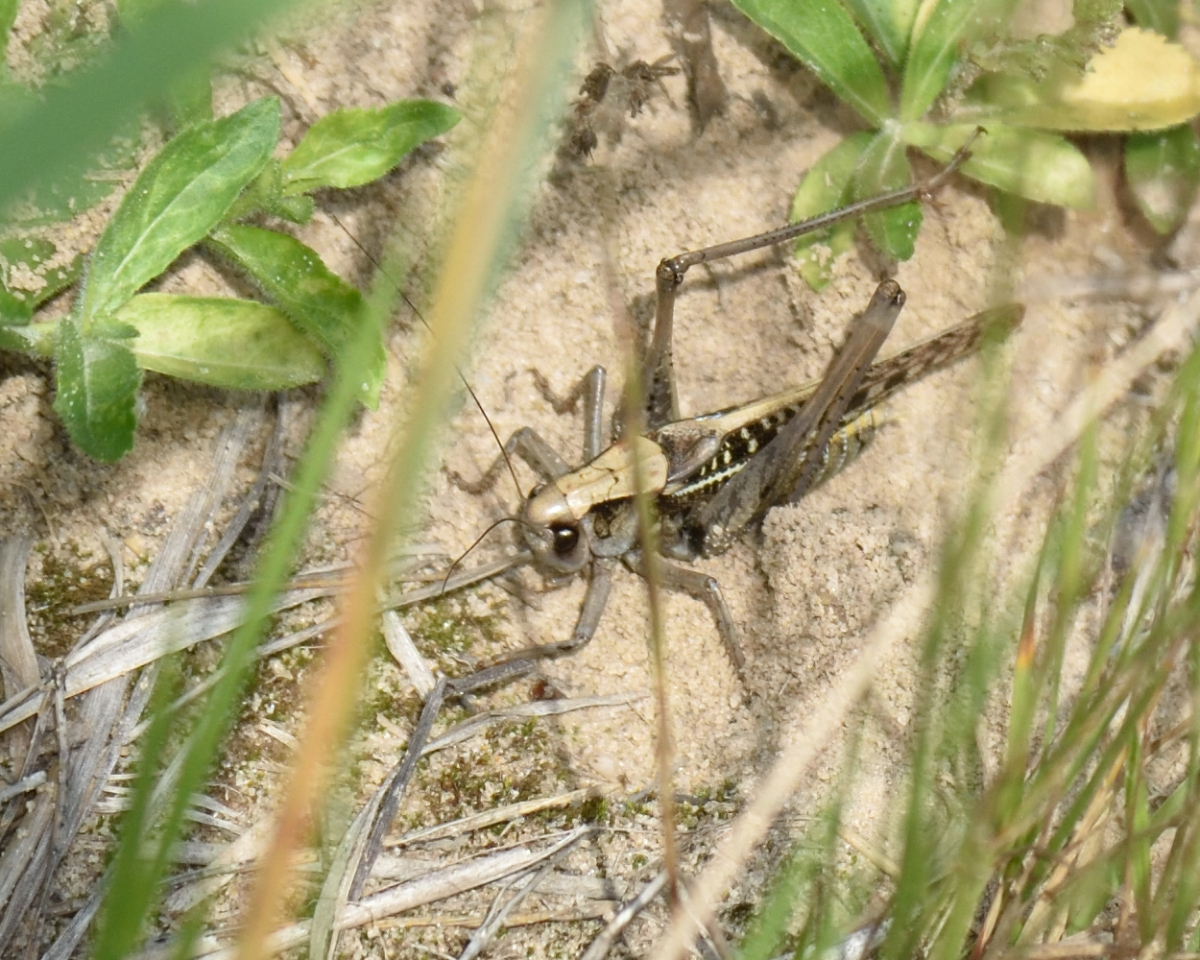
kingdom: Animalia
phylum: Arthropoda
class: Insecta
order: Orthoptera
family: Tettigoniidae
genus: Decticus
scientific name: Decticus verrucivorus
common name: Wart-biter
